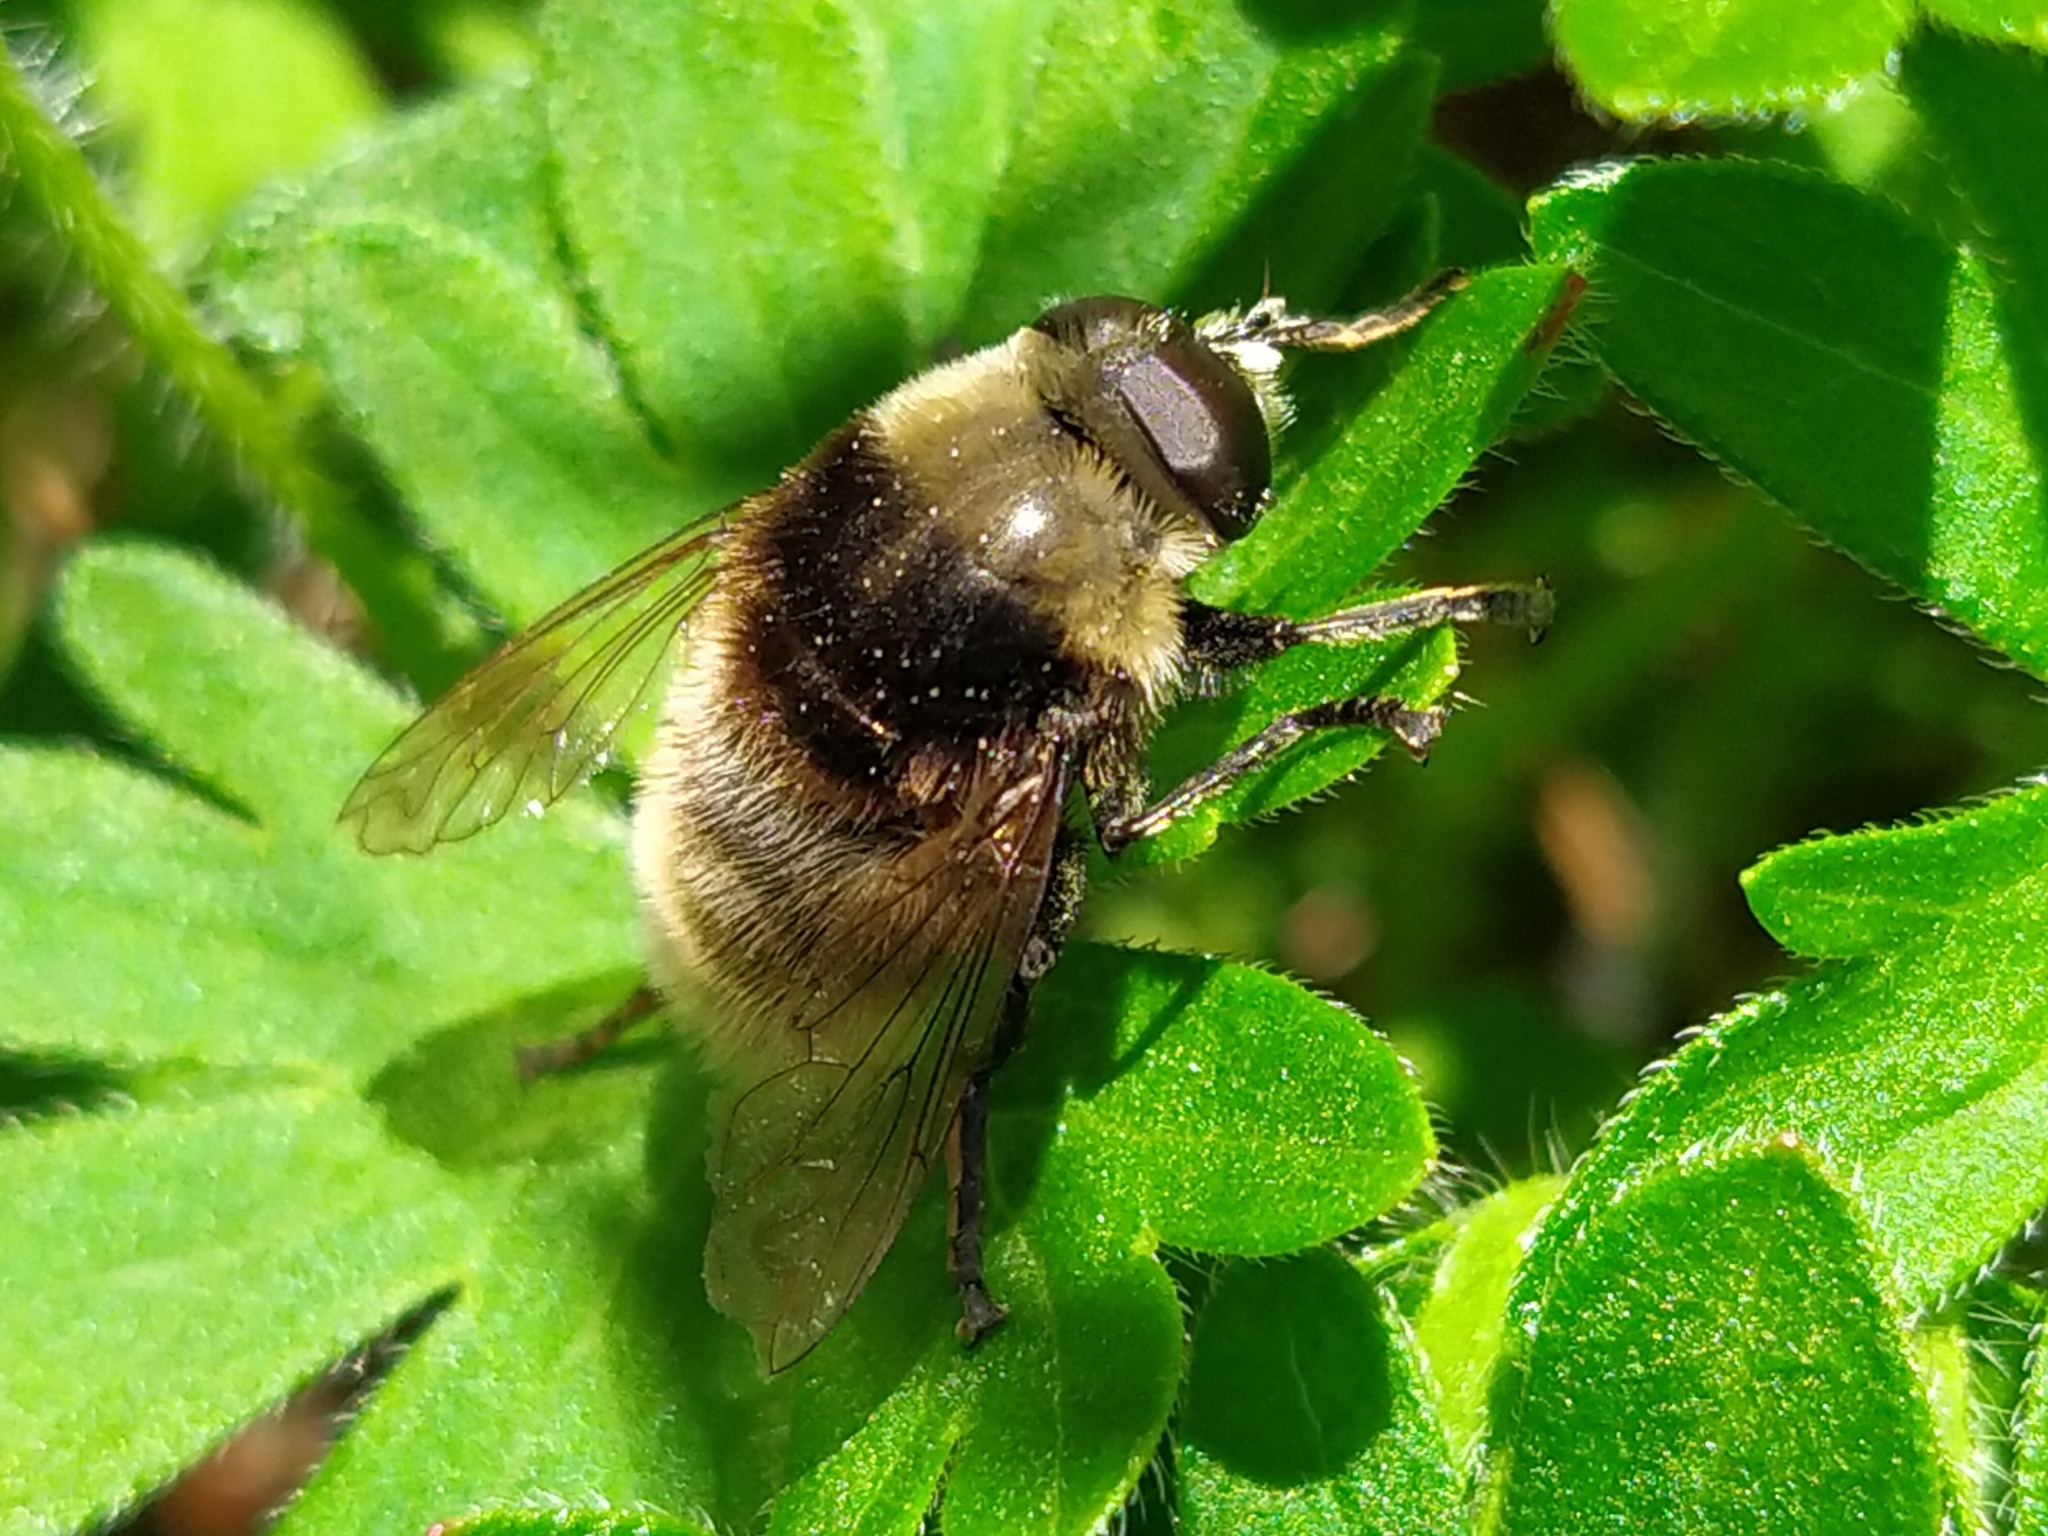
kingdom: Animalia
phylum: Arthropoda
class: Insecta
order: Diptera
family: Syrphidae
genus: Merodon
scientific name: Merodon equestris
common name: Greater bulb-fly
